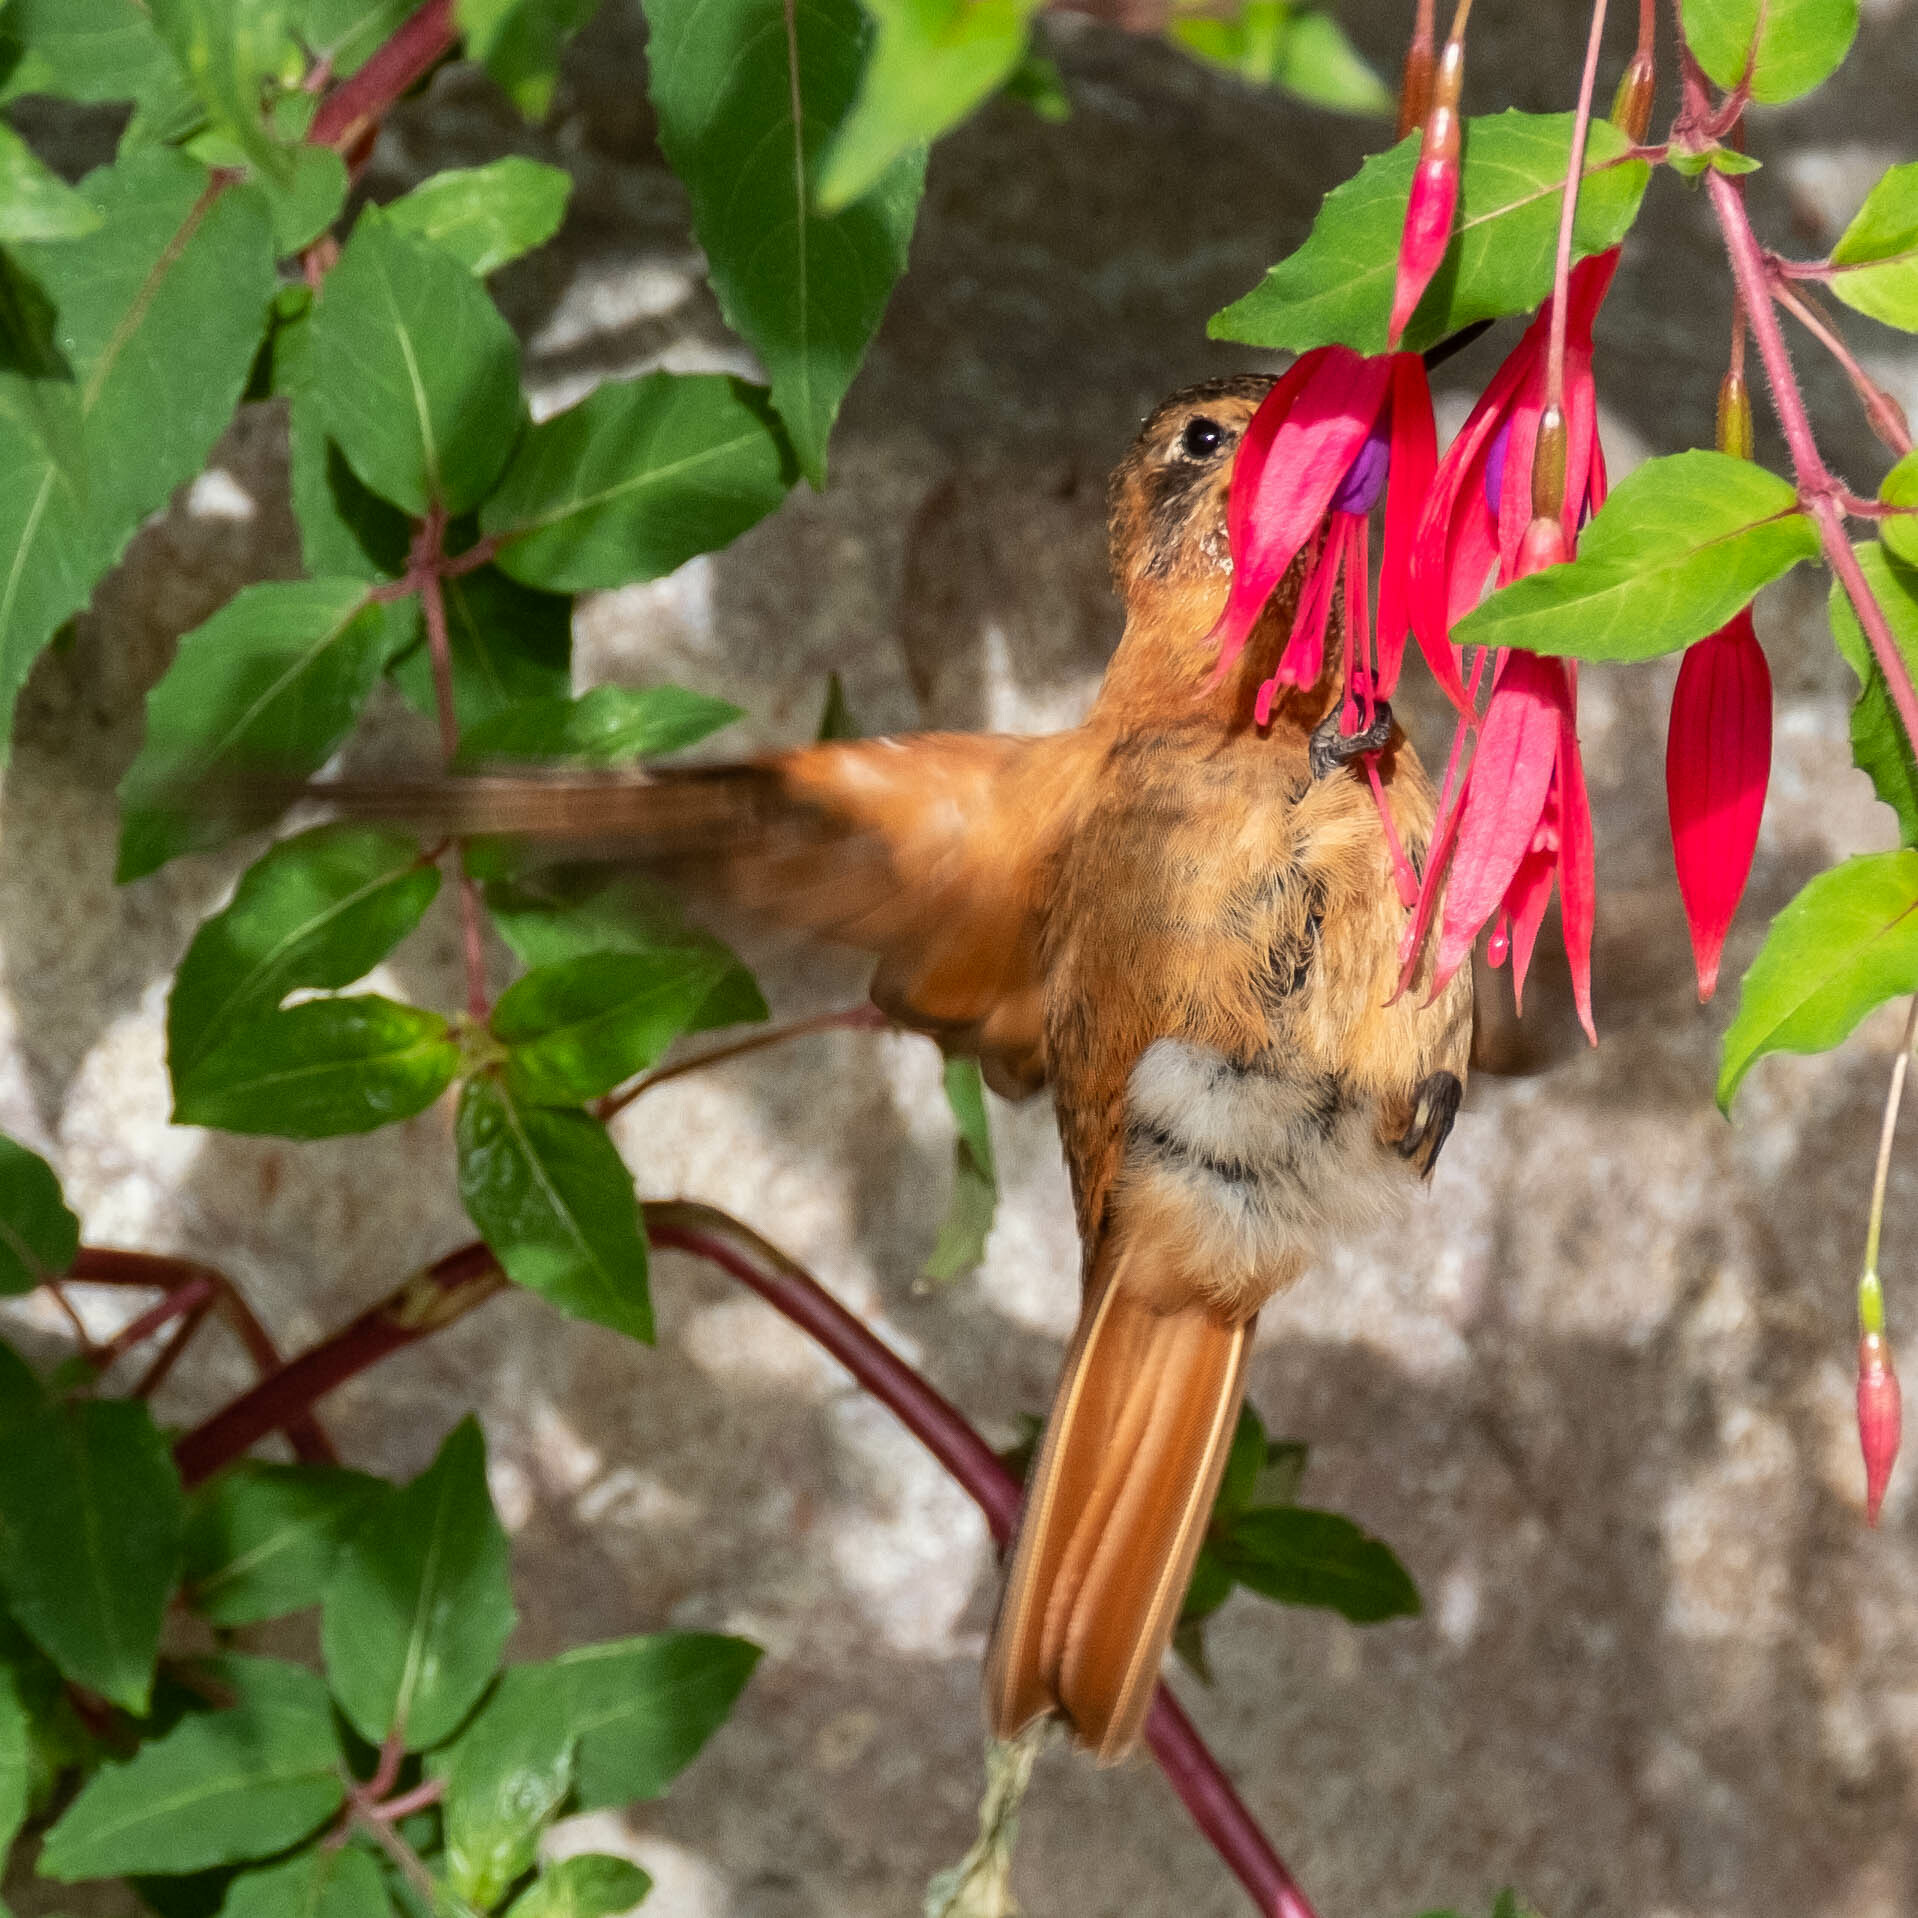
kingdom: Animalia
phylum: Chordata
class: Aves
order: Apodiformes
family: Trochilidae
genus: Aglaeactis
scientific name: Aglaeactis cupripennis
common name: Shining sunbeam
